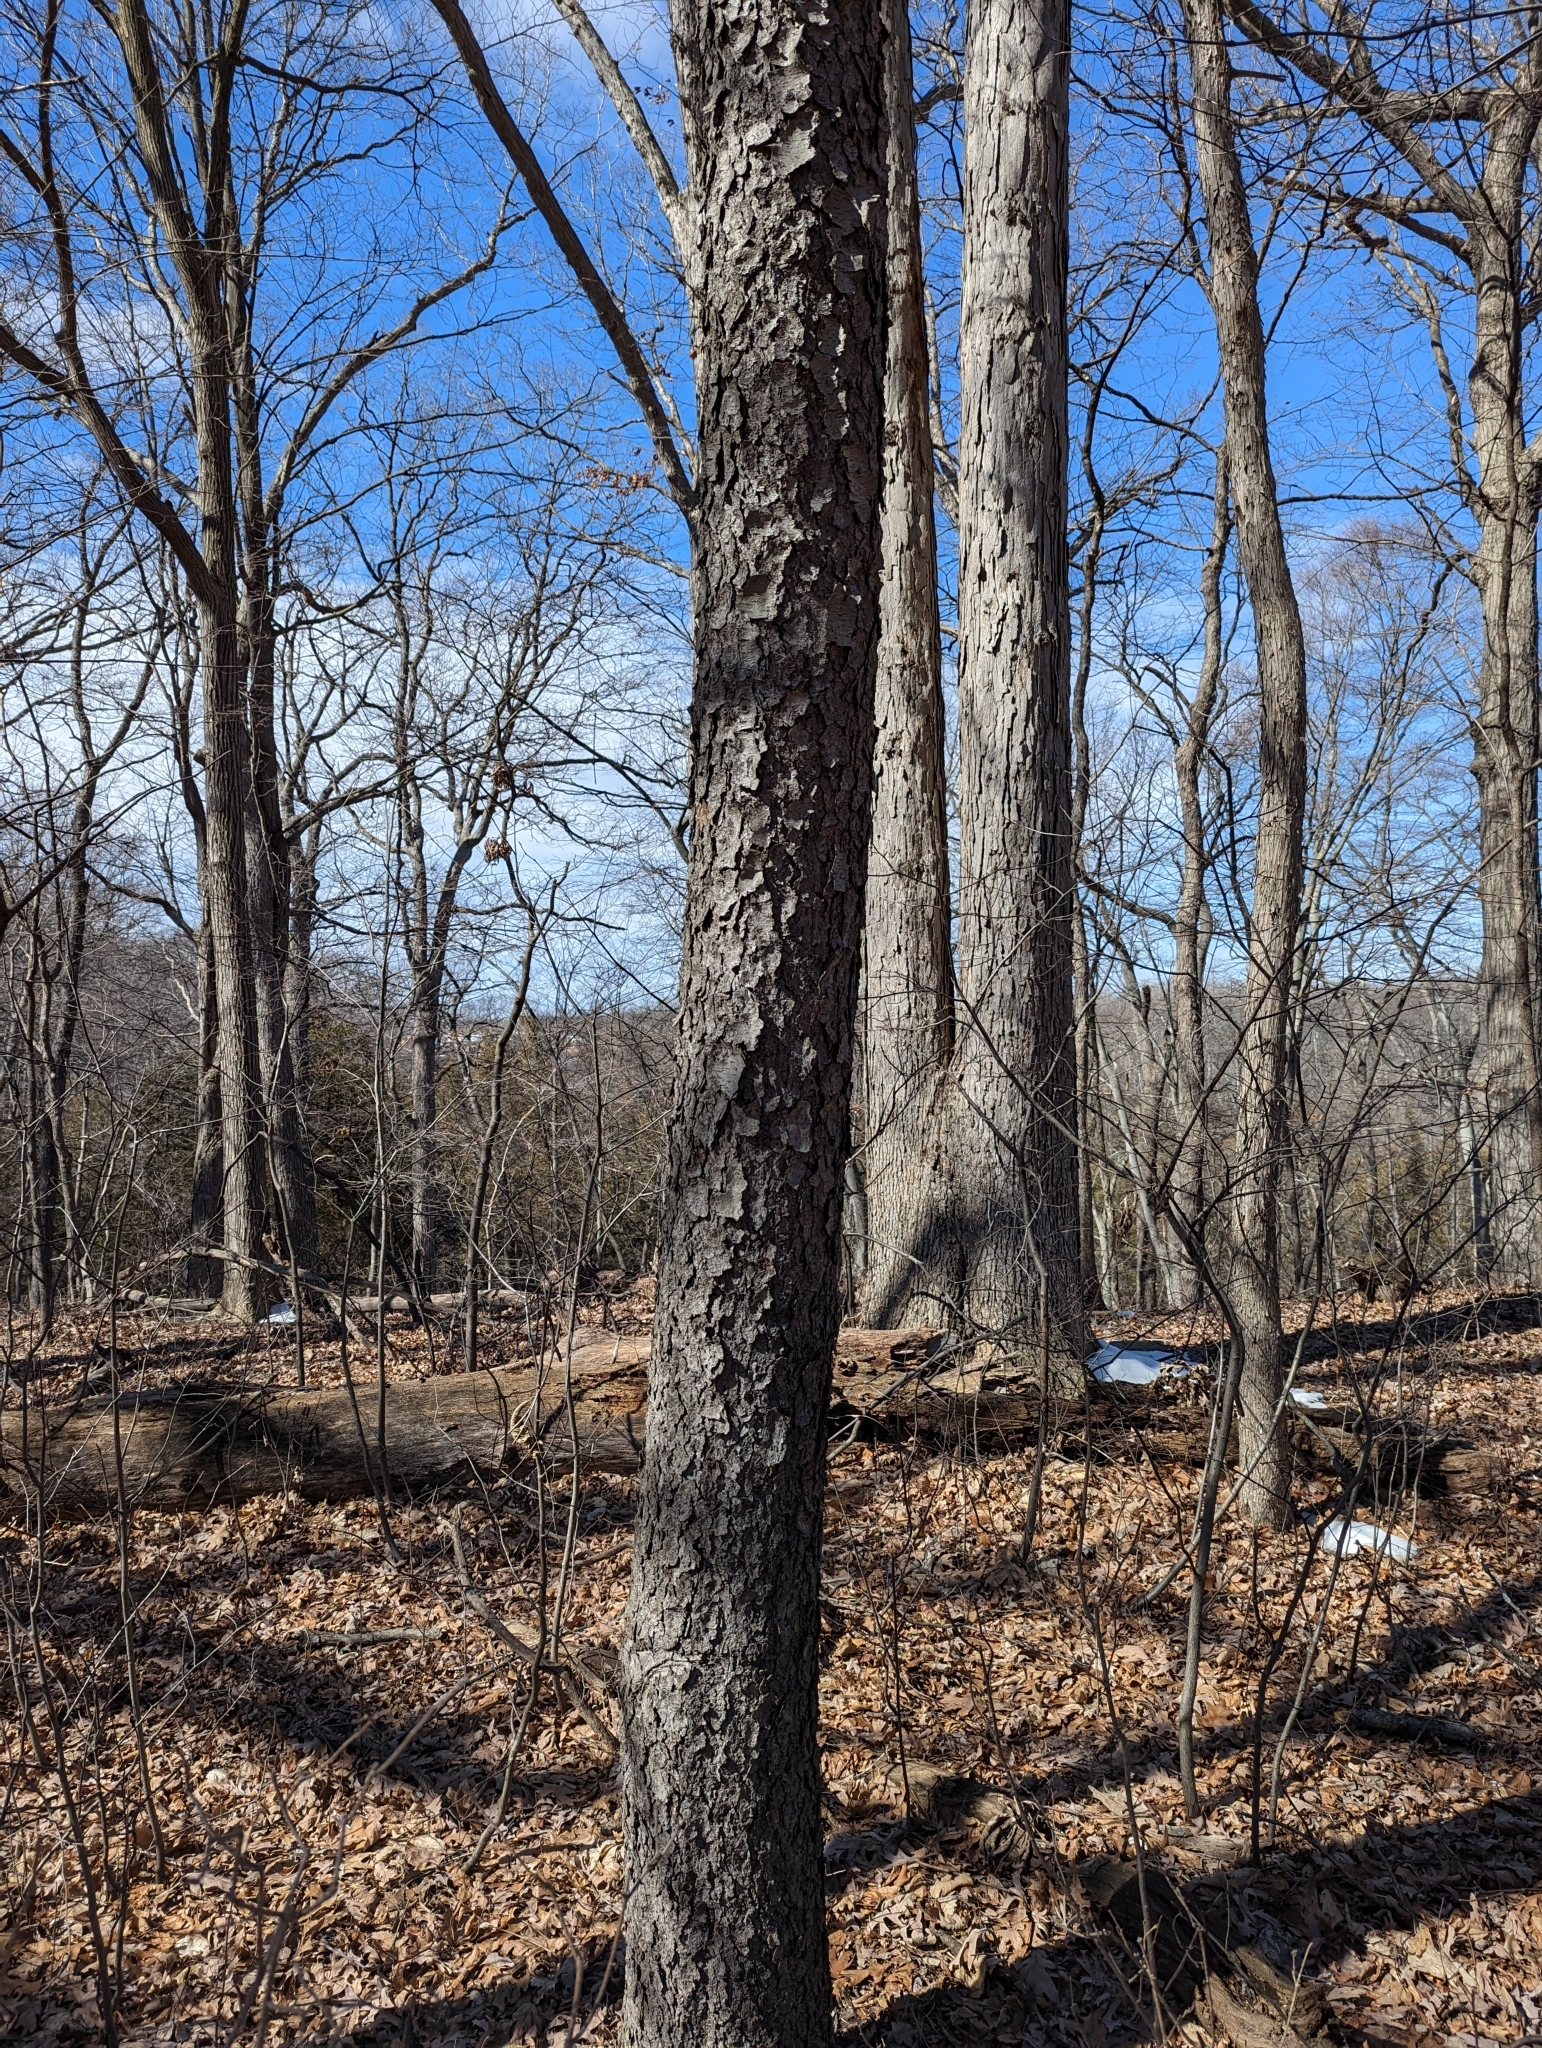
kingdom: Plantae
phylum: Tracheophyta
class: Magnoliopsida
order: Rosales
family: Rosaceae
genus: Prunus
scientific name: Prunus serotina
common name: Black cherry
